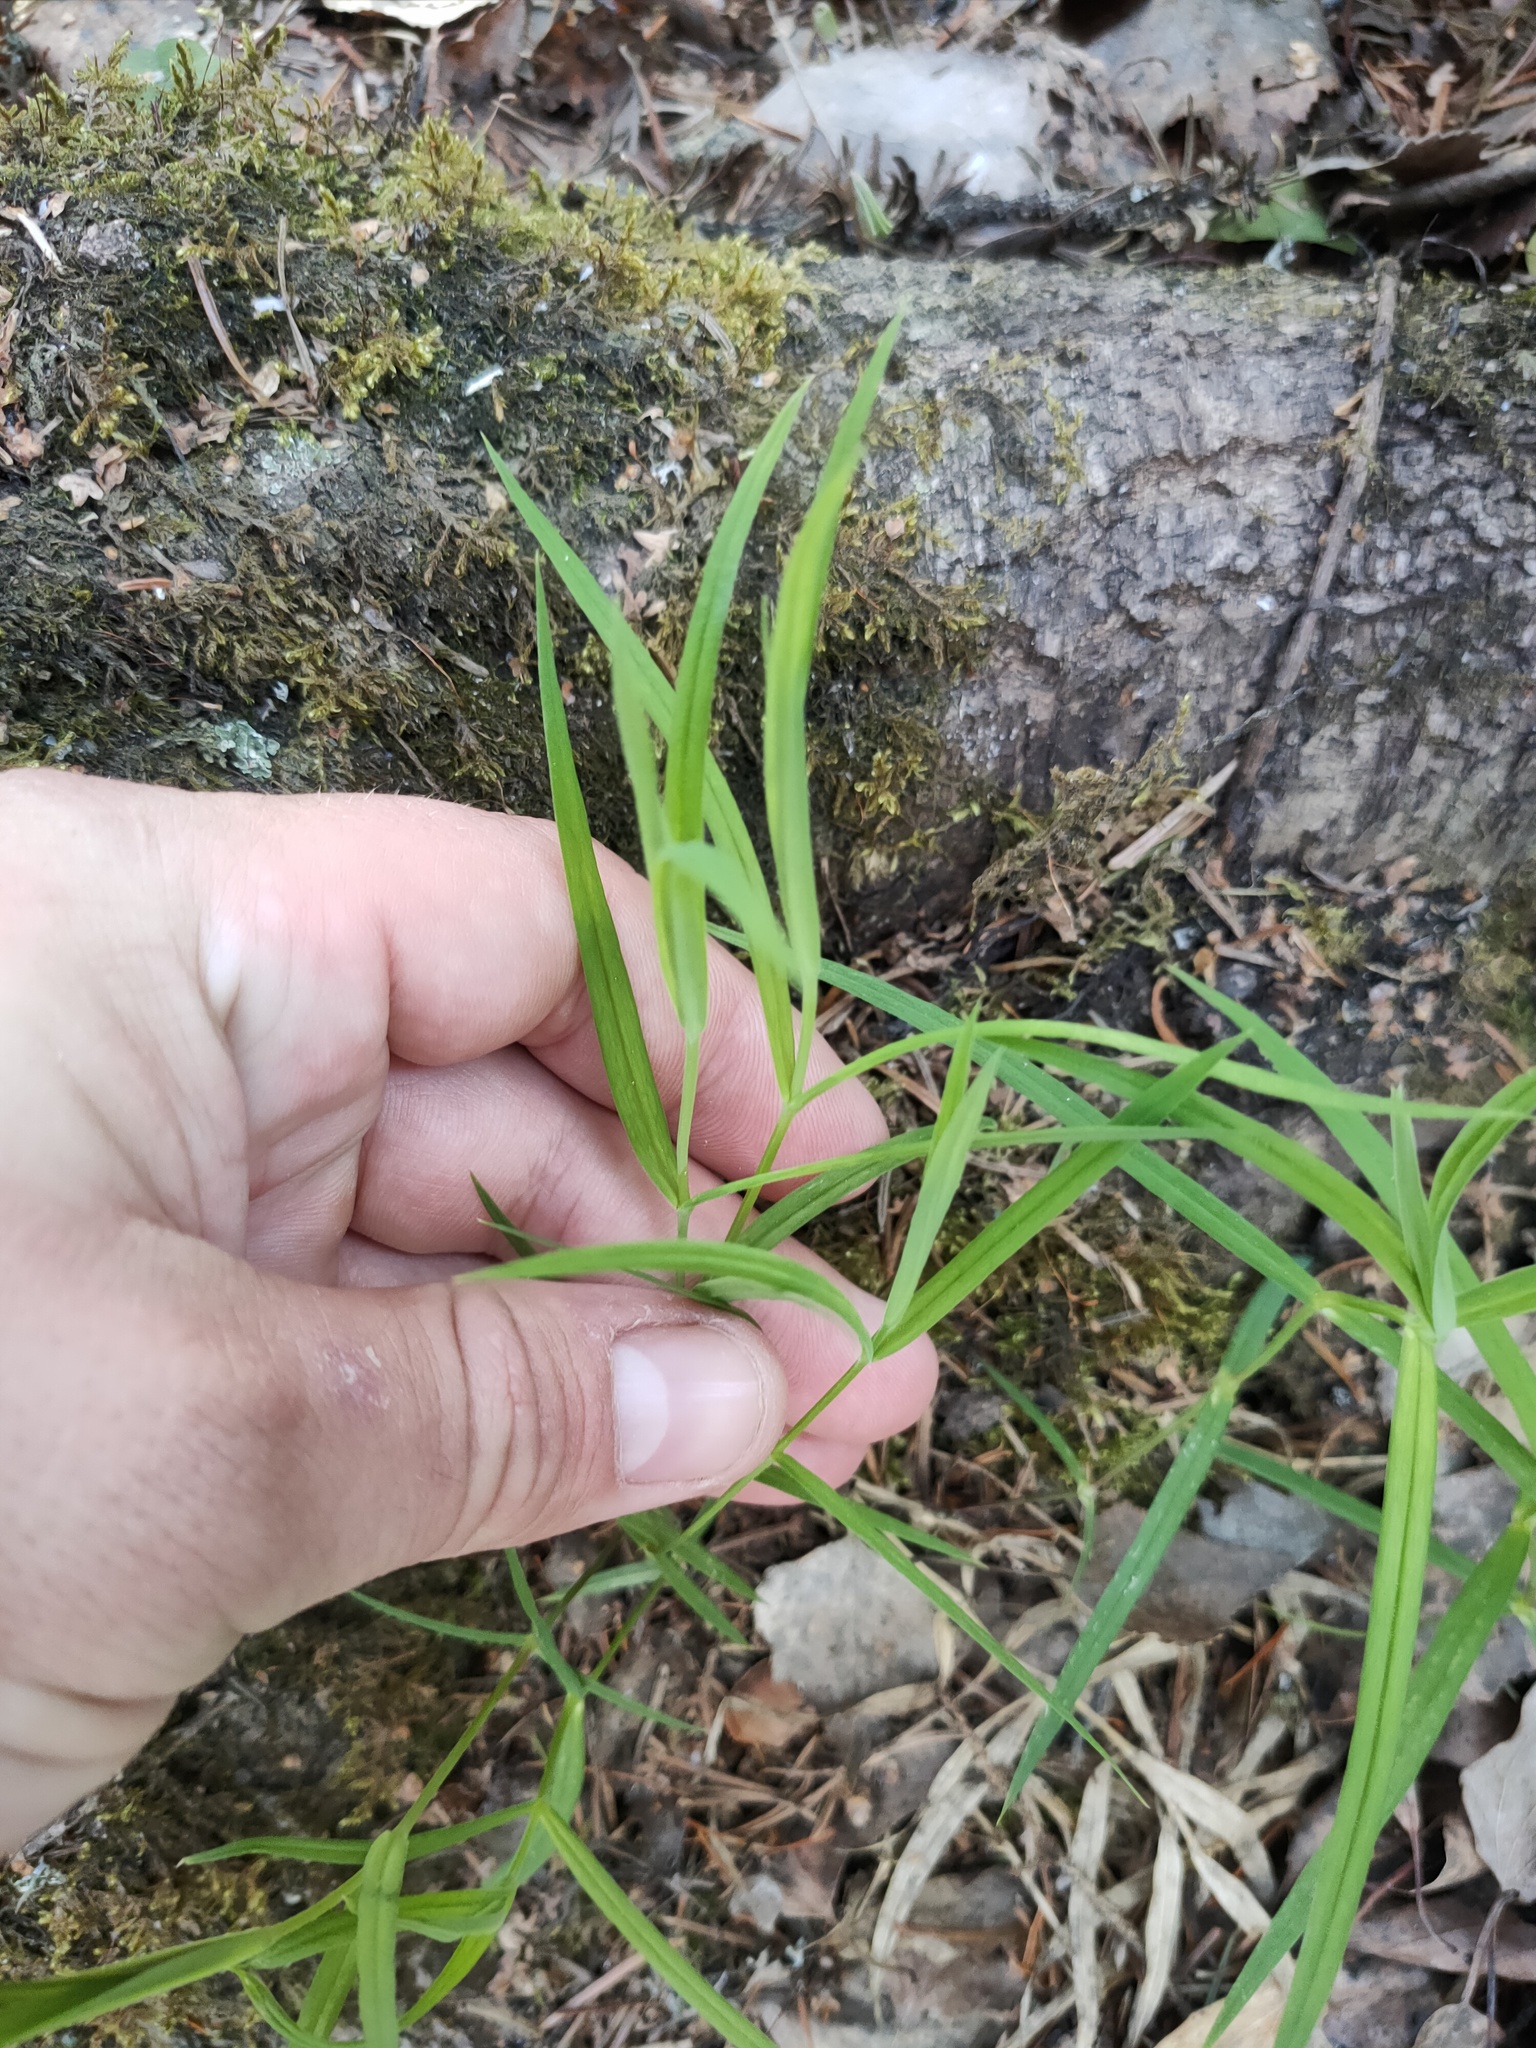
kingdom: Plantae
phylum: Tracheophyta
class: Magnoliopsida
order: Caryophyllales
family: Caryophyllaceae
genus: Rabelera
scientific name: Rabelera holostea
